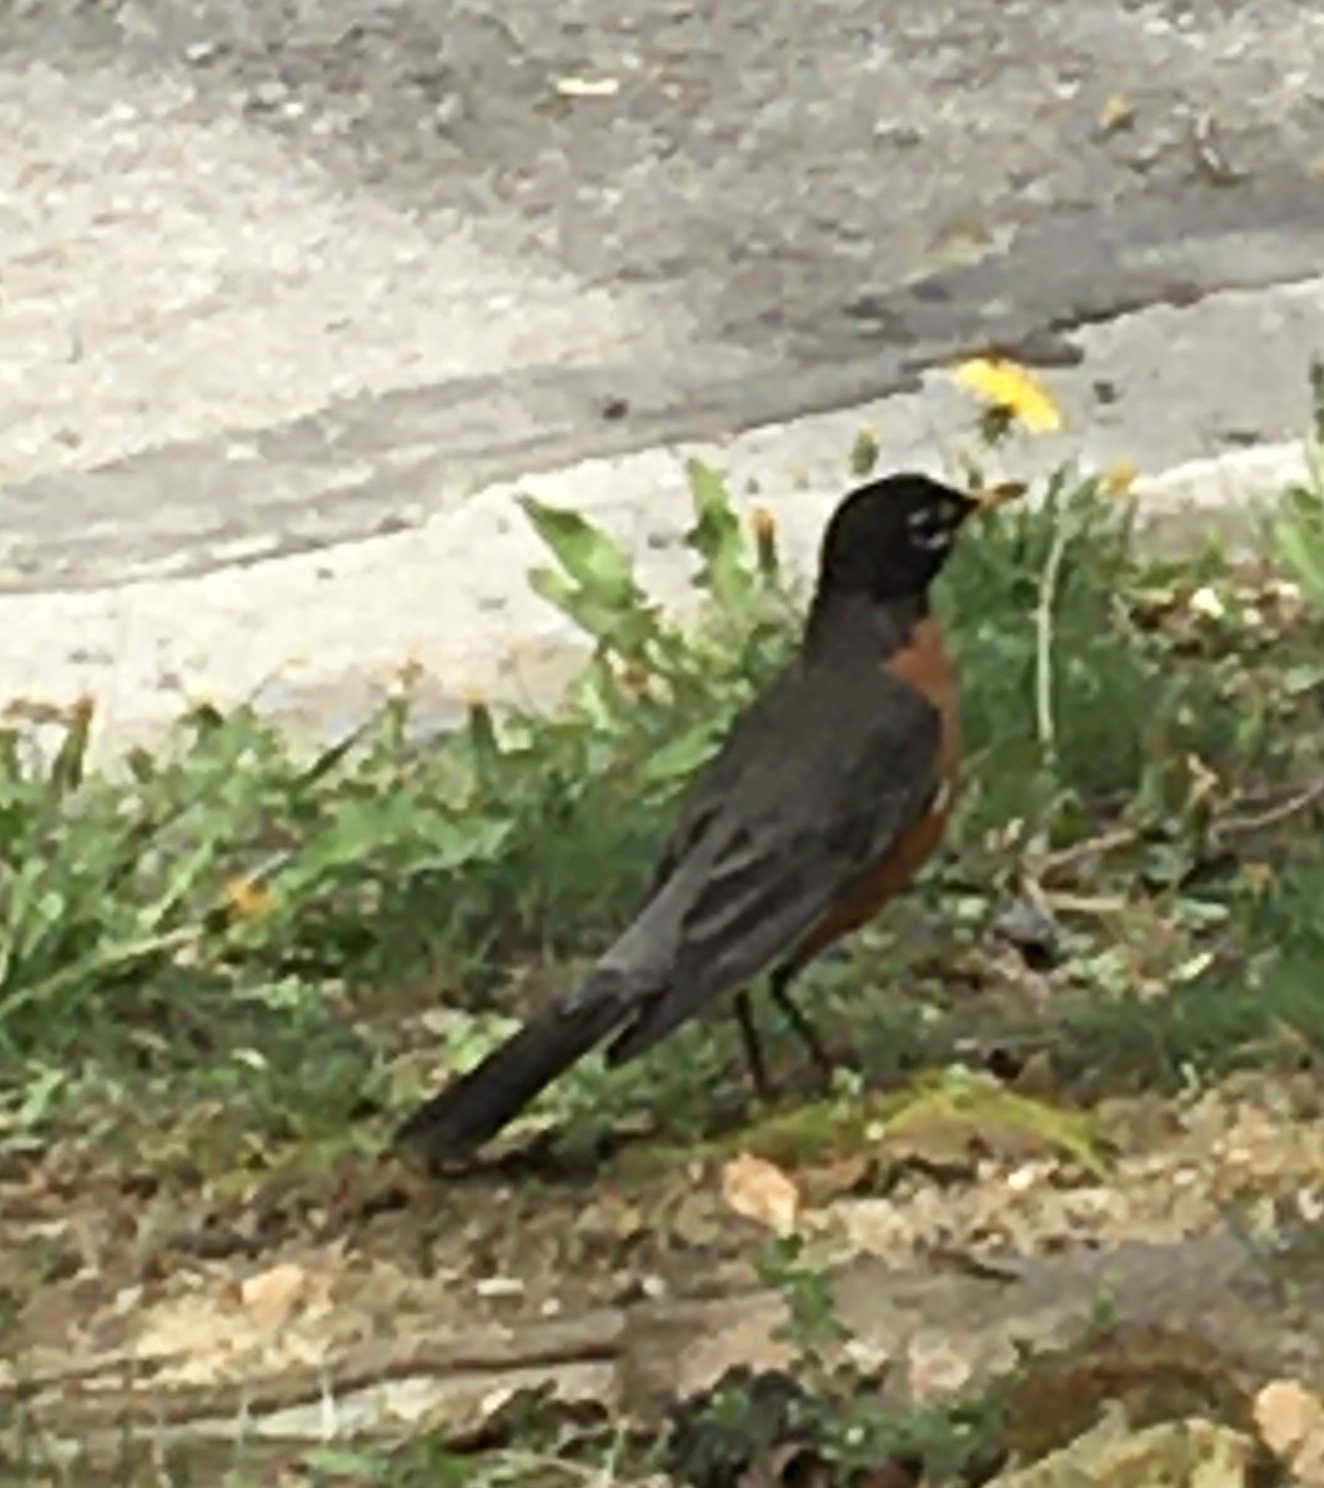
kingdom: Animalia
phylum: Chordata
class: Aves
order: Passeriformes
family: Turdidae
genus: Turdus
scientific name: Turdus migratorius
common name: American robin
